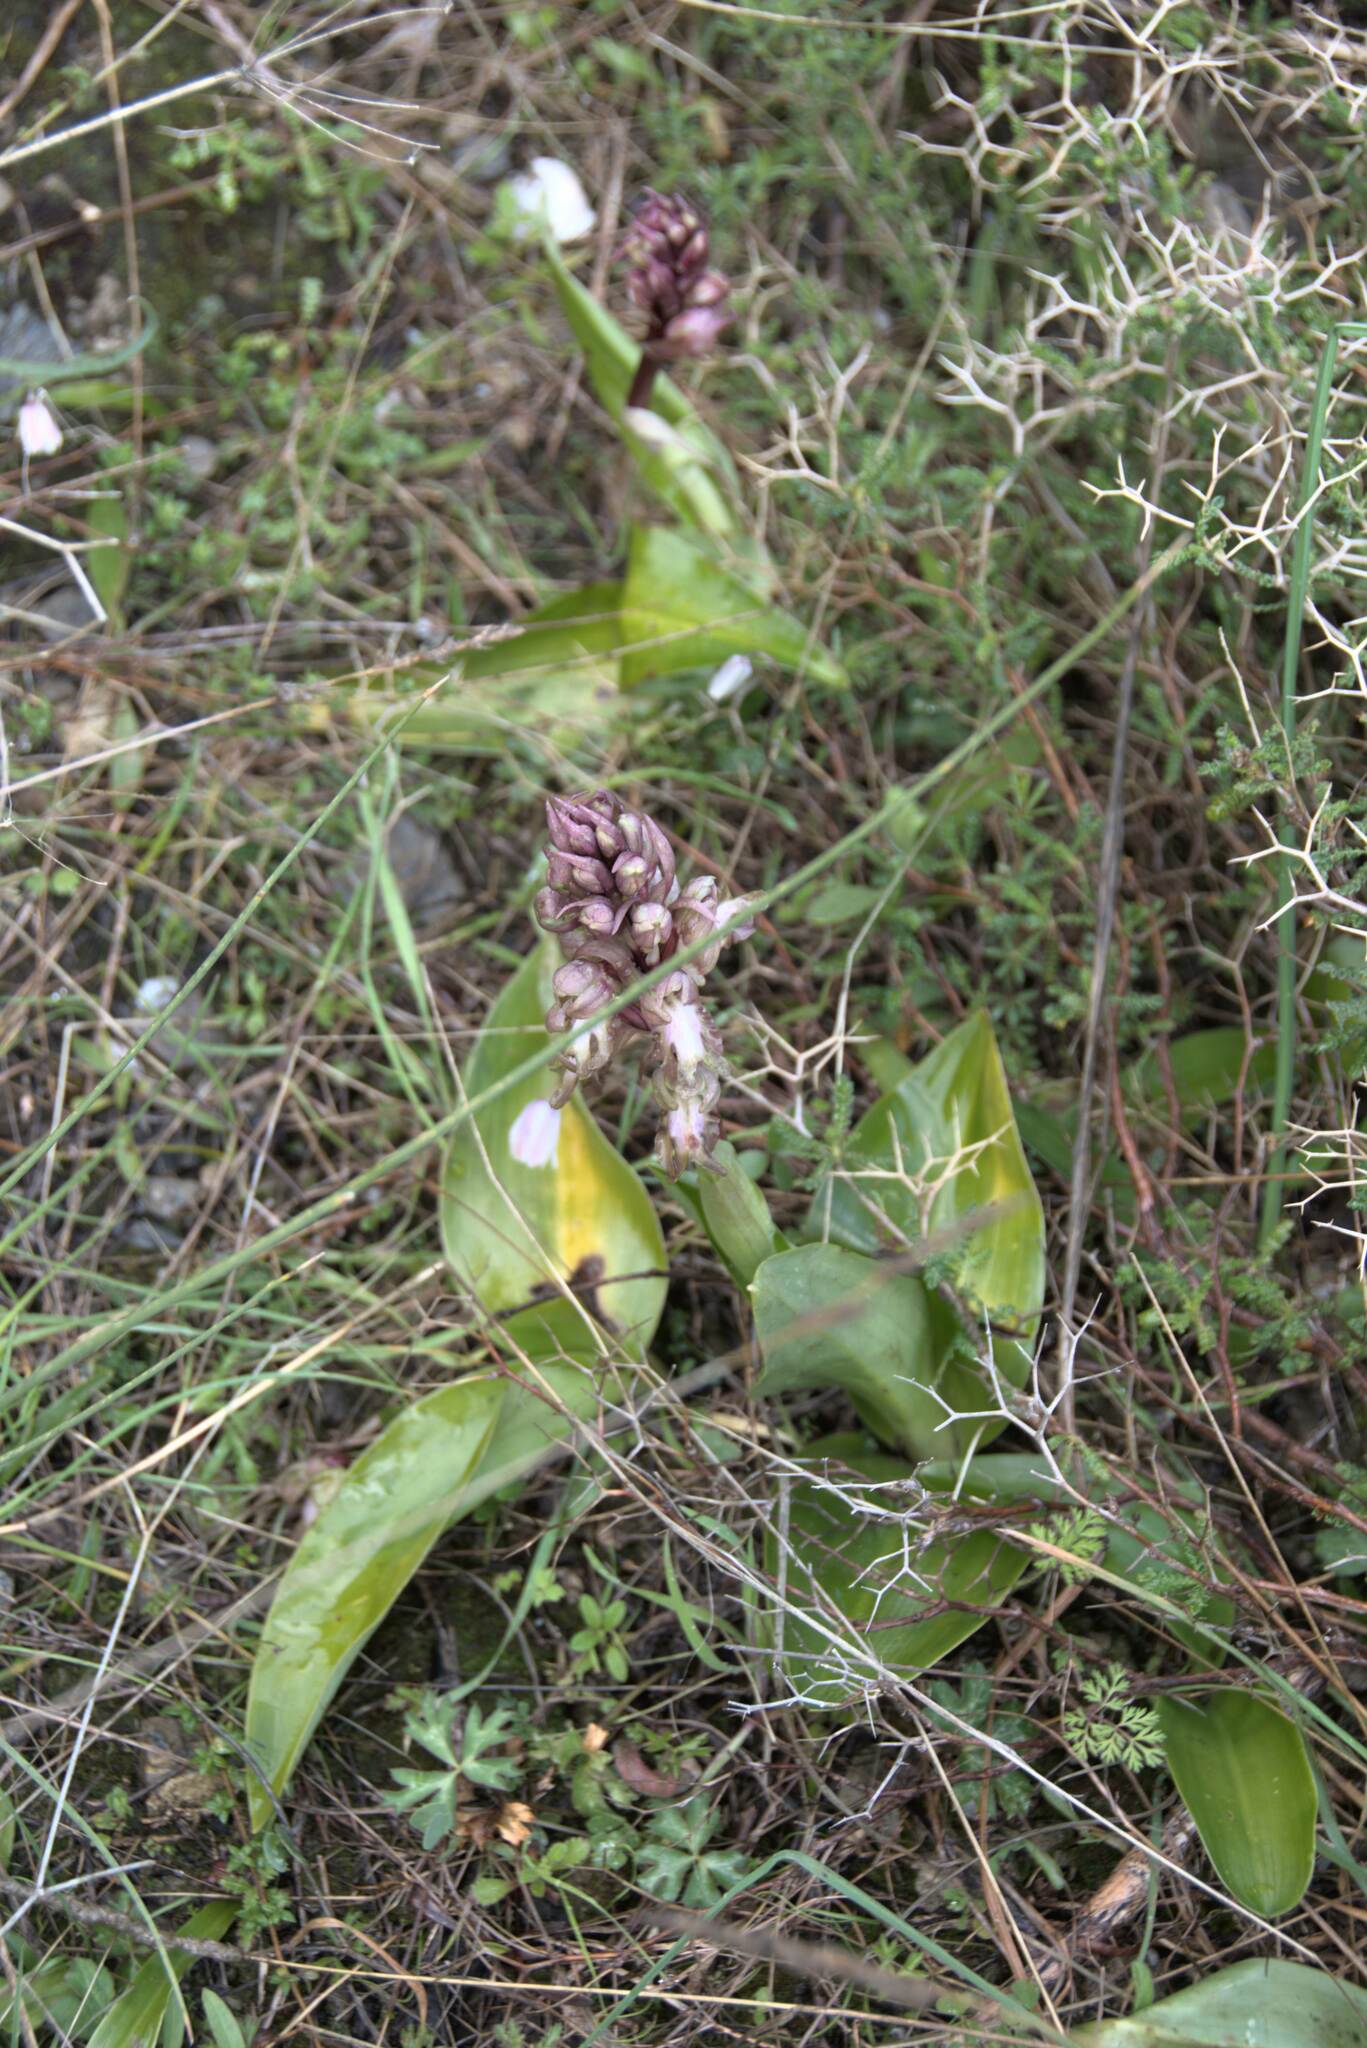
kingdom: Plantae
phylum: Tracheophyta
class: Liliopsida
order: Asparagales
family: Orchidaceae
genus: Himantoglossum
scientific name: Himantoglossum robertianum
